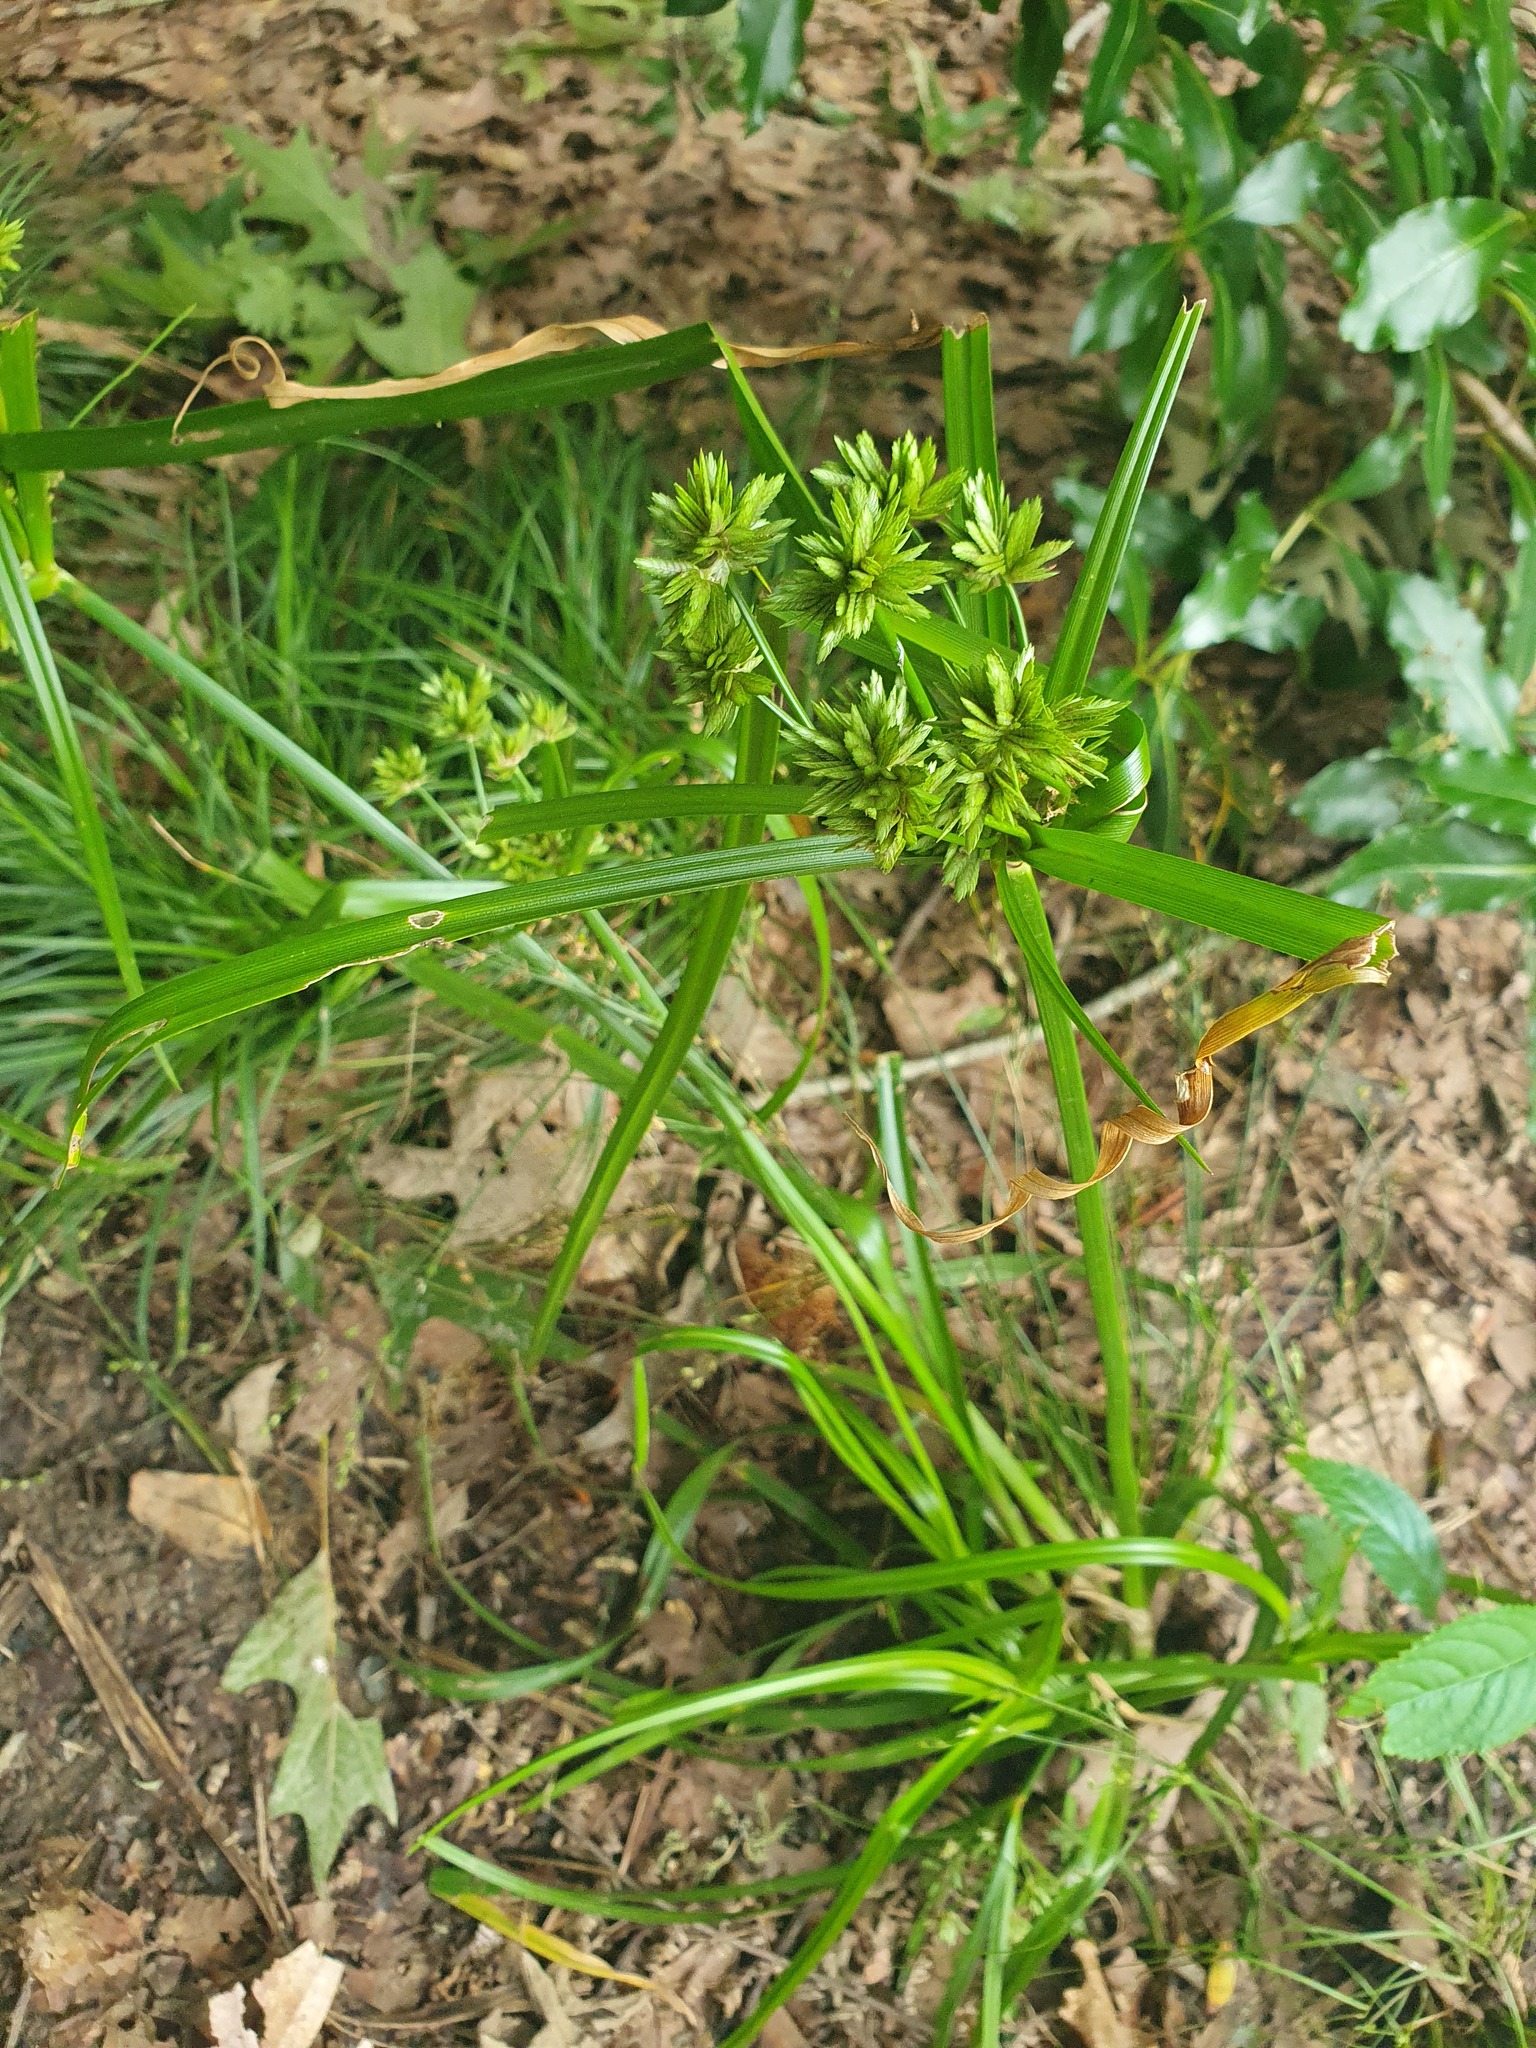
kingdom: Plantae
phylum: Tracheophyta
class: Liliopsida
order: Poales
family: Cyperaceae
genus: Cyperus
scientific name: Cyperus eragrostis
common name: Tall flatsedge
